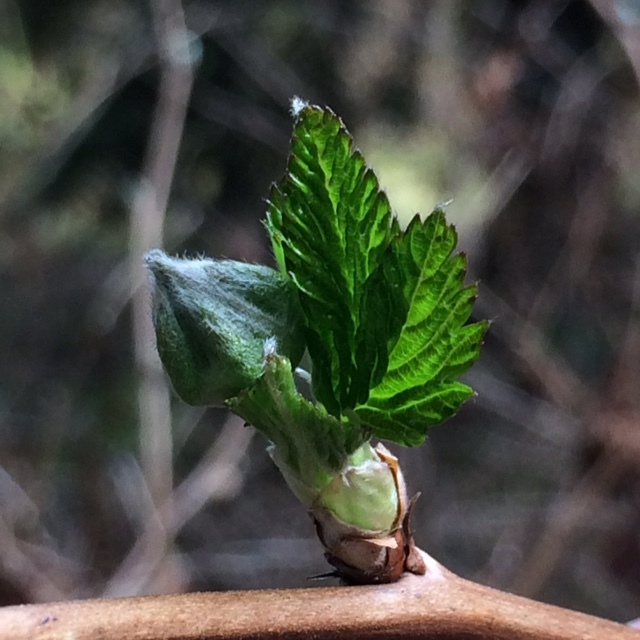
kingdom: Plantae
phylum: Tracheophyta
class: Magnoliopsida
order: Rosales
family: Rosaceae
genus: Rubus
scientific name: Rubus spectabilis
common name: Salmonberry
